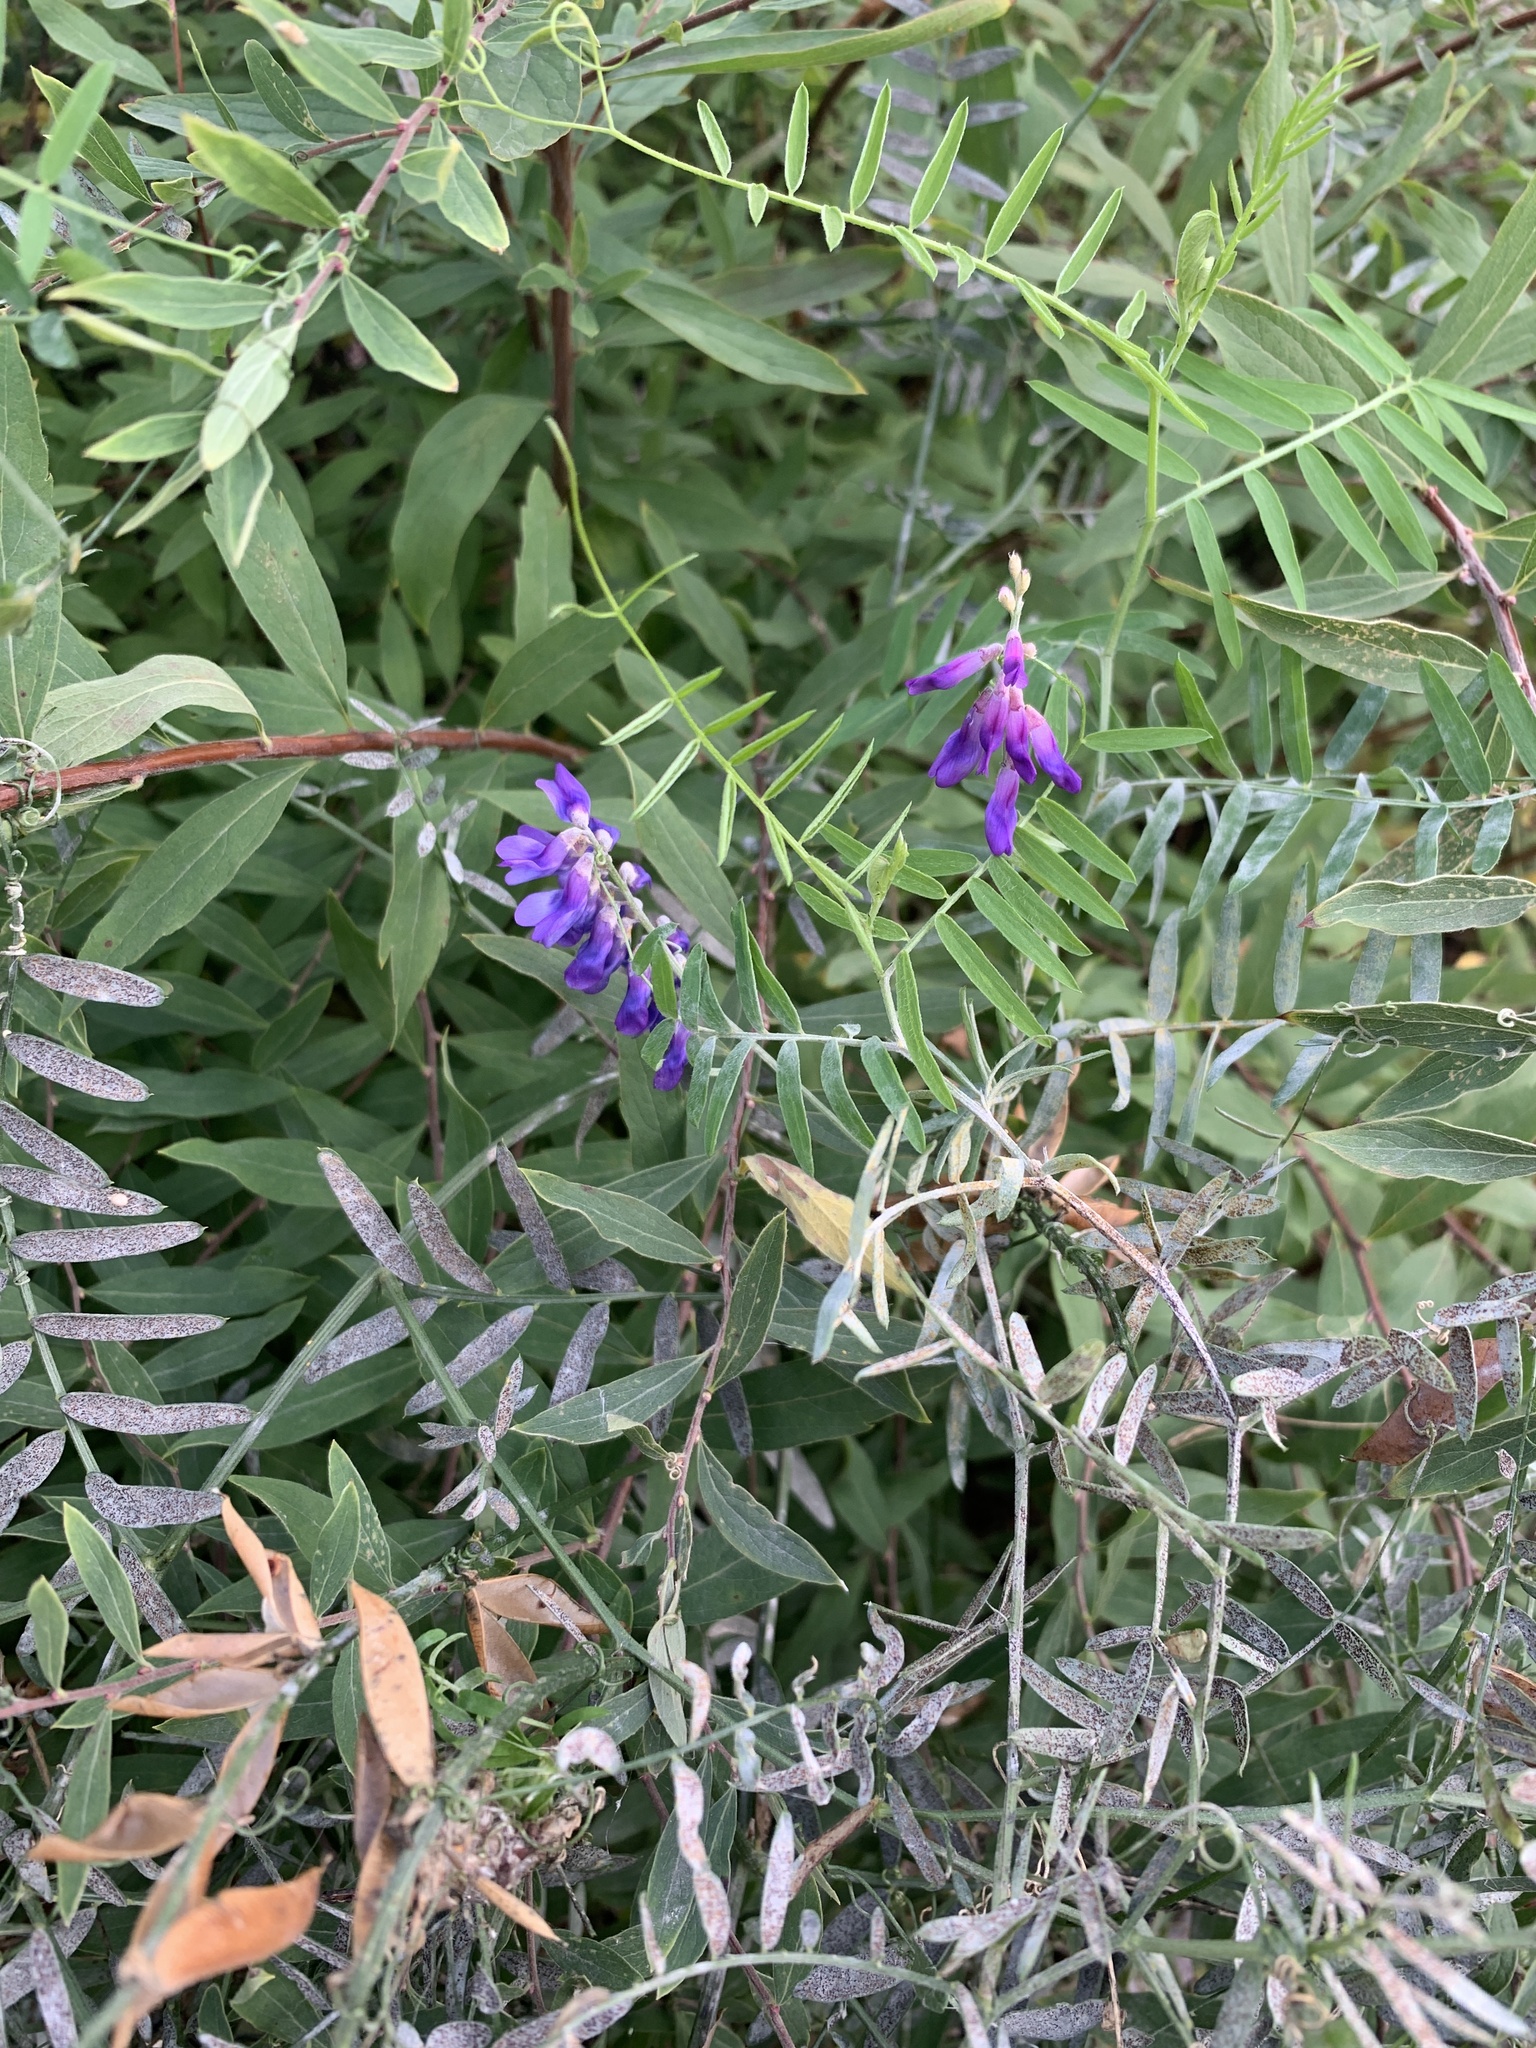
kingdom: Plantae
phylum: Tracheophyta
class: Magnoliopsida
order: Fabales
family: Fabaceae
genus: Vicia
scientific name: Vicia cracca
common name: Bird vetch
